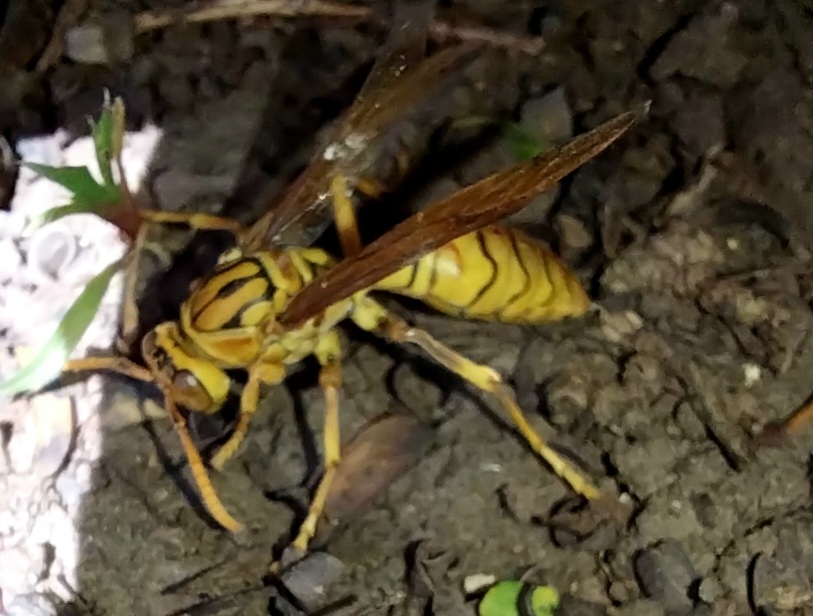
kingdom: Animalia
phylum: Arthropoda
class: Insecta
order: Hymenoptera
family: Eumenidae
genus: Polistes
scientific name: Polistes olivaceus
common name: Paper wasp
